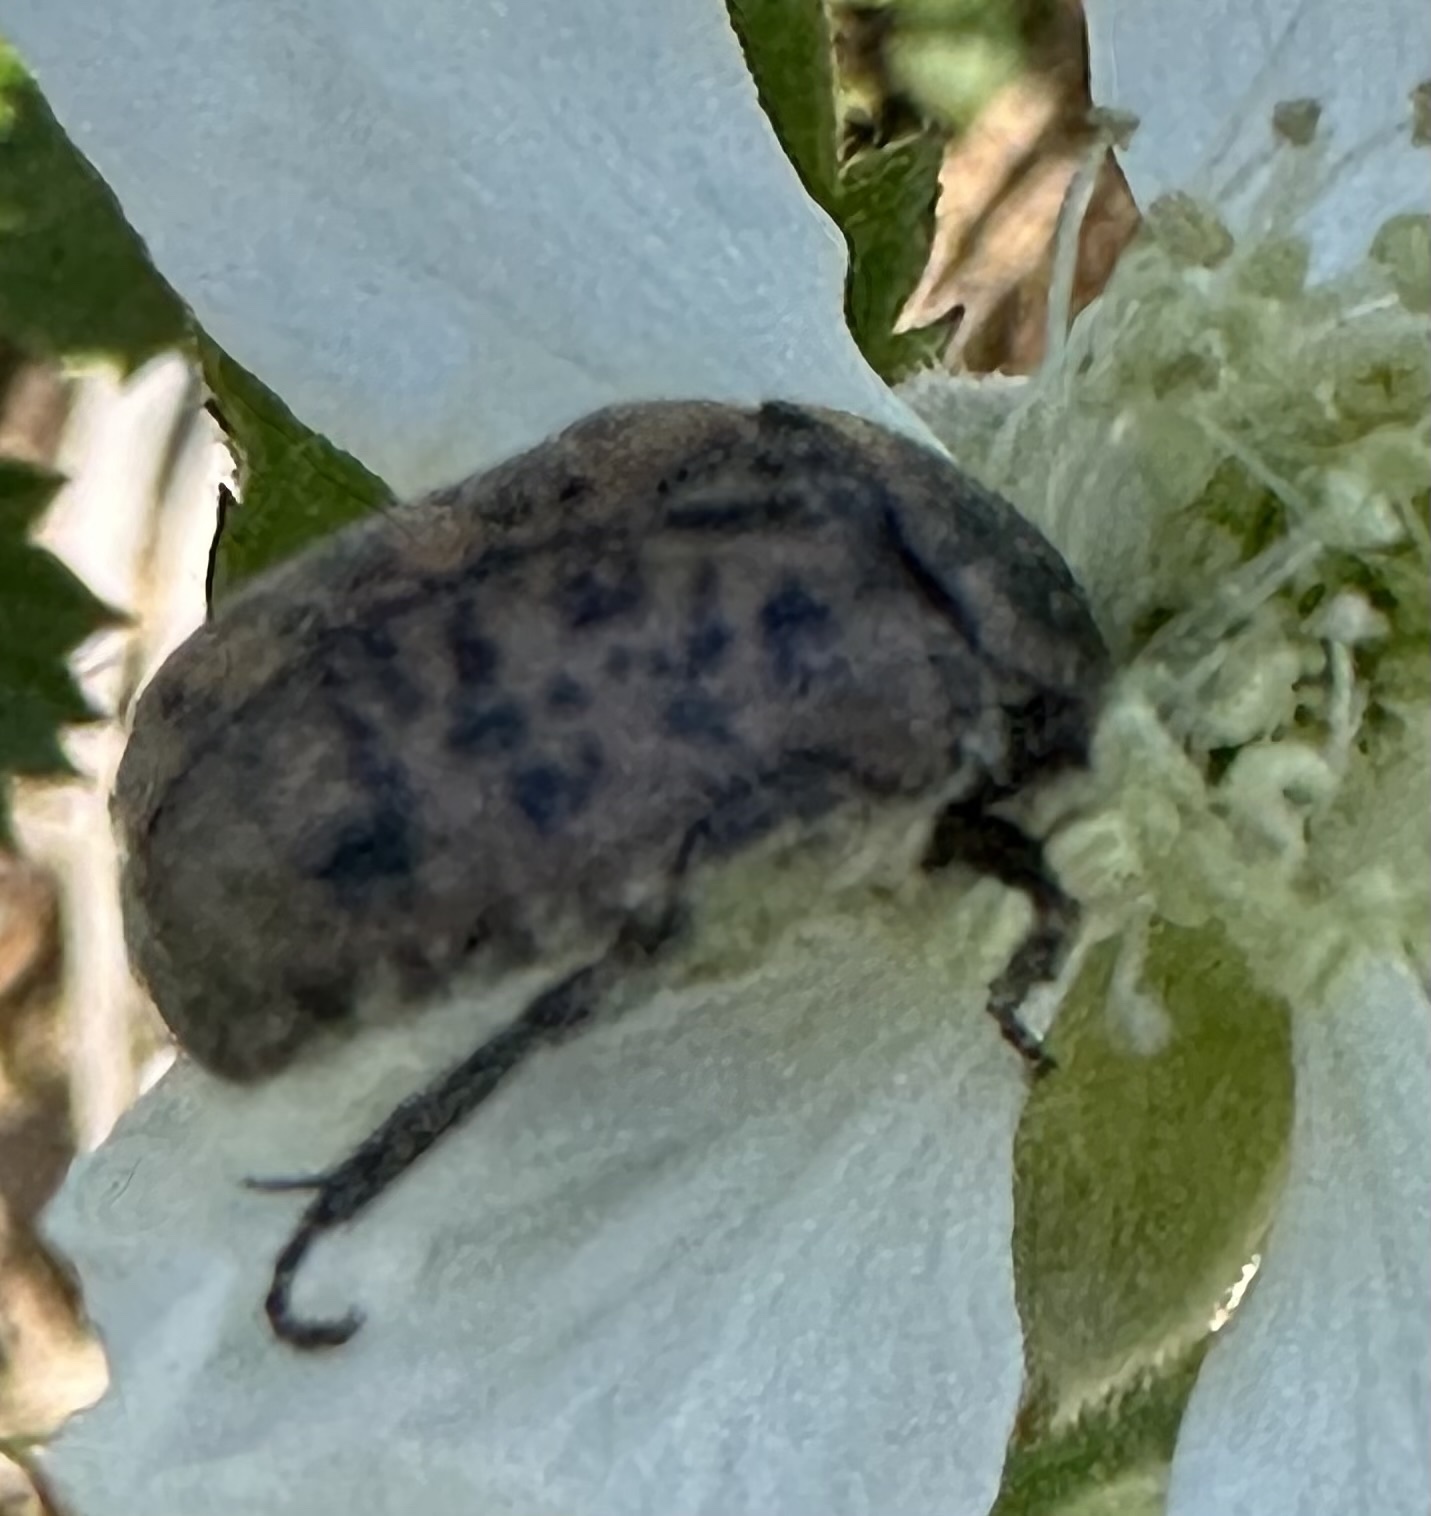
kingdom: Animalia
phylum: Arthropoda
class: Insecta
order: Coleoptera
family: Scarabaeidae
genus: Atrichelaphinis
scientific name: Atrichelaphinis tigrina
